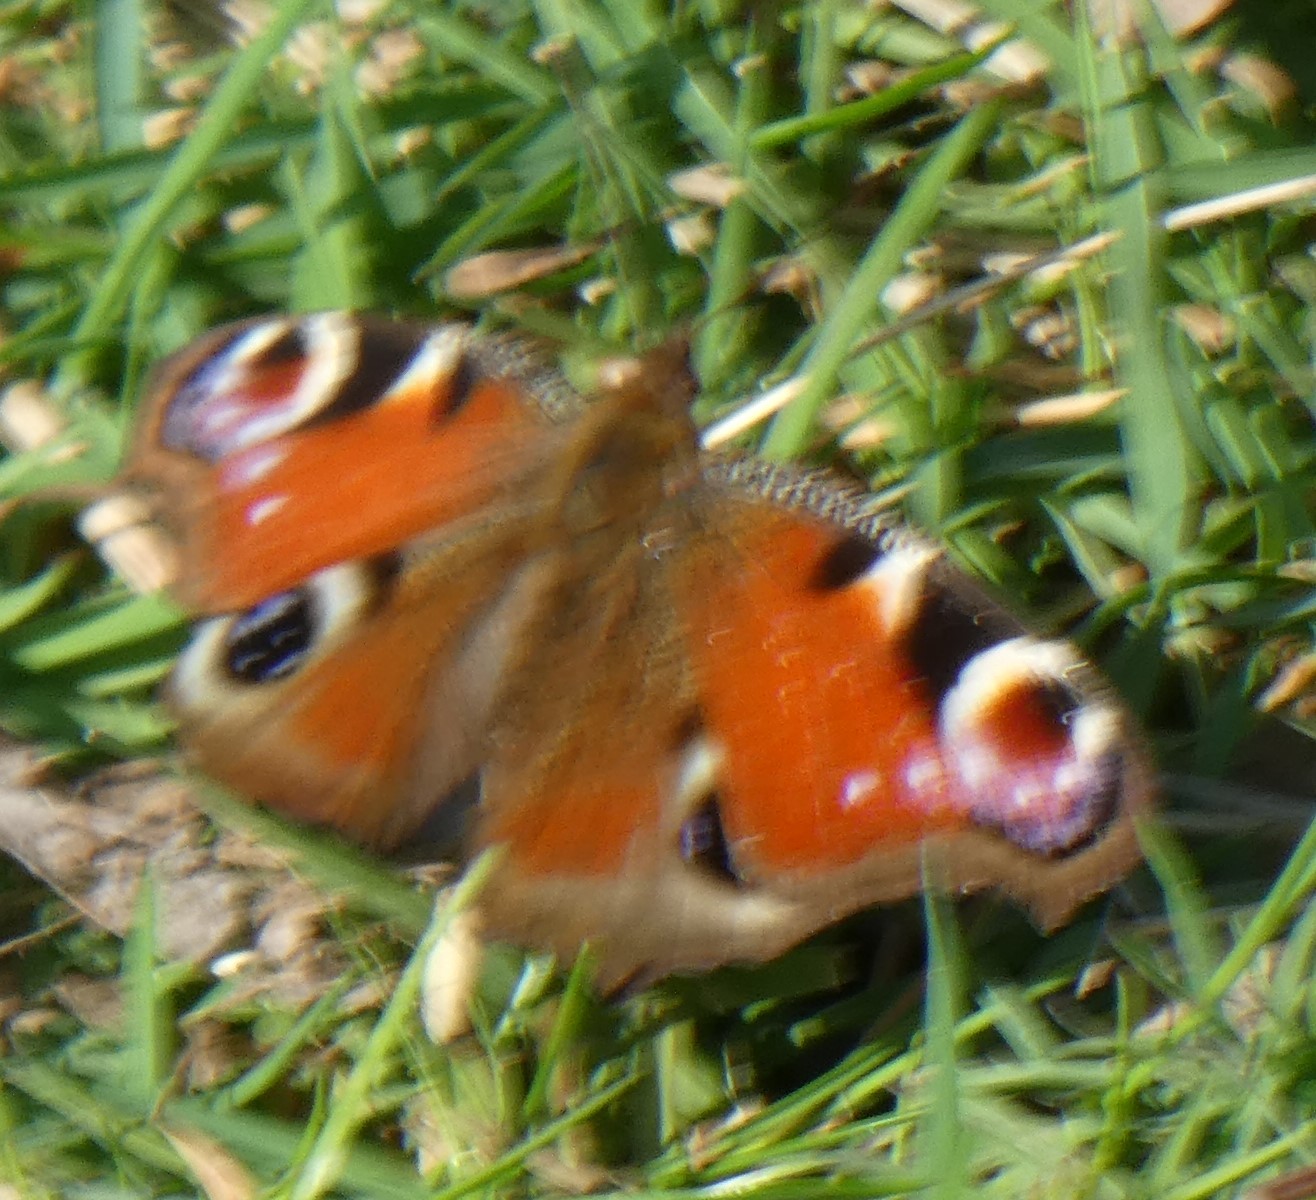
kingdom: Animalia
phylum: Arthropoda
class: Insecta
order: Lepidoptera
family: Nymphalidae
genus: Aglais
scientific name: Aglais io
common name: Peacock
